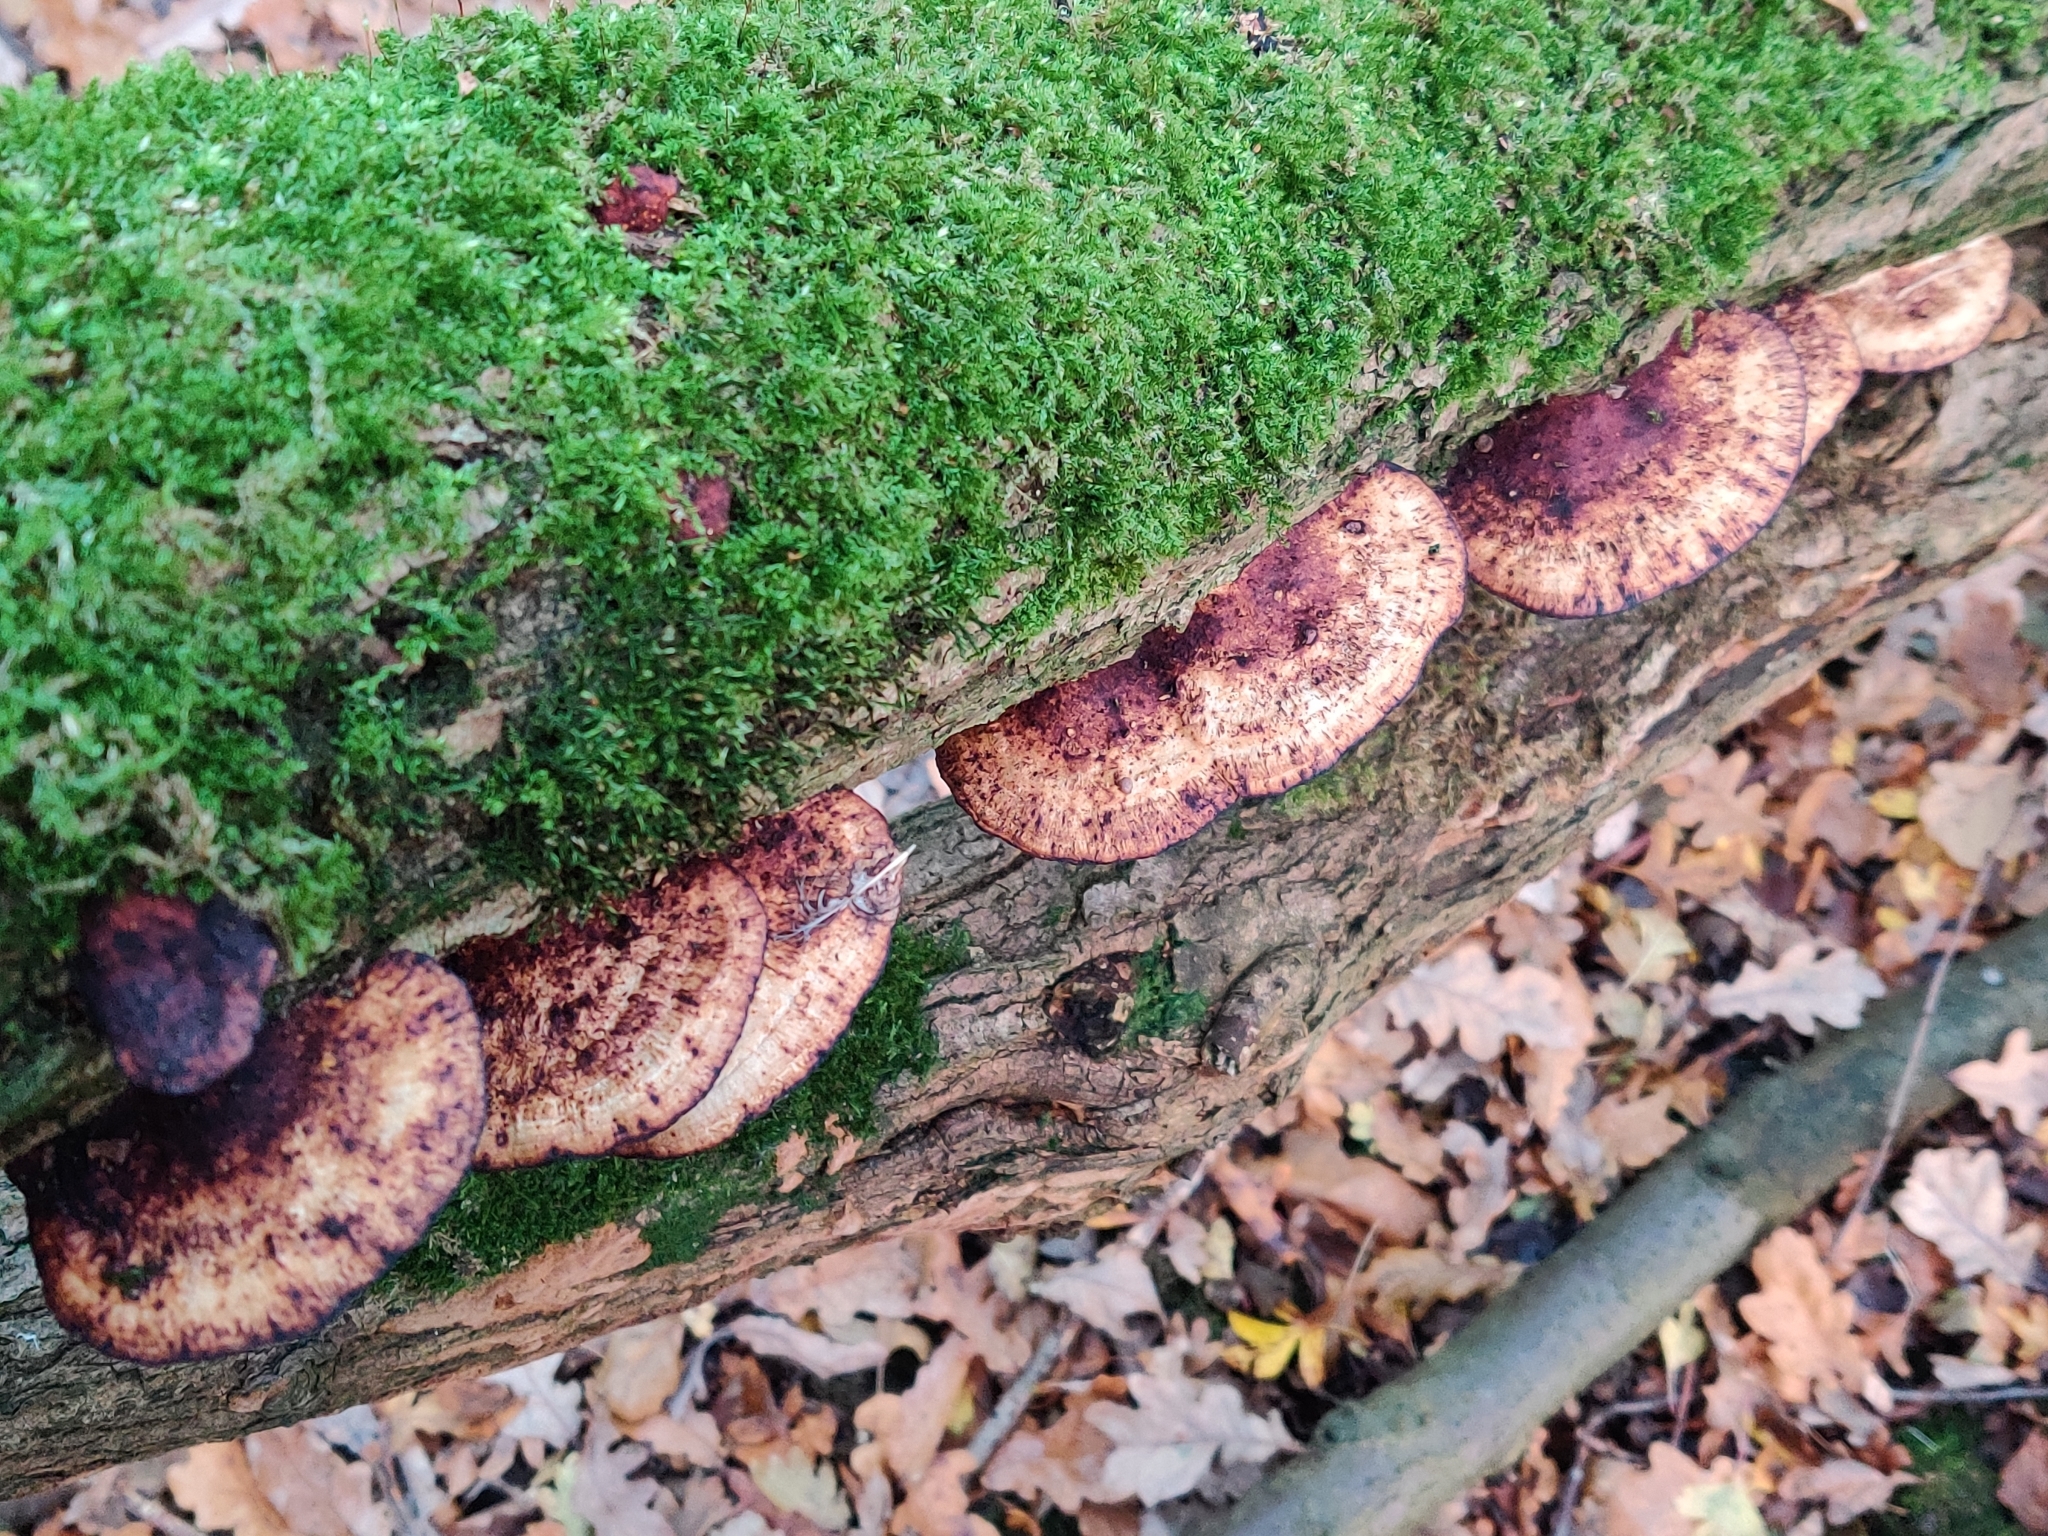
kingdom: Fungi
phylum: Basidiomycota
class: Agaricomycetes
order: Polyporales
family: Polyporaceae
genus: Daedaleopsis
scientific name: Daedaleopsis confragosa
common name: Blushing bracket
